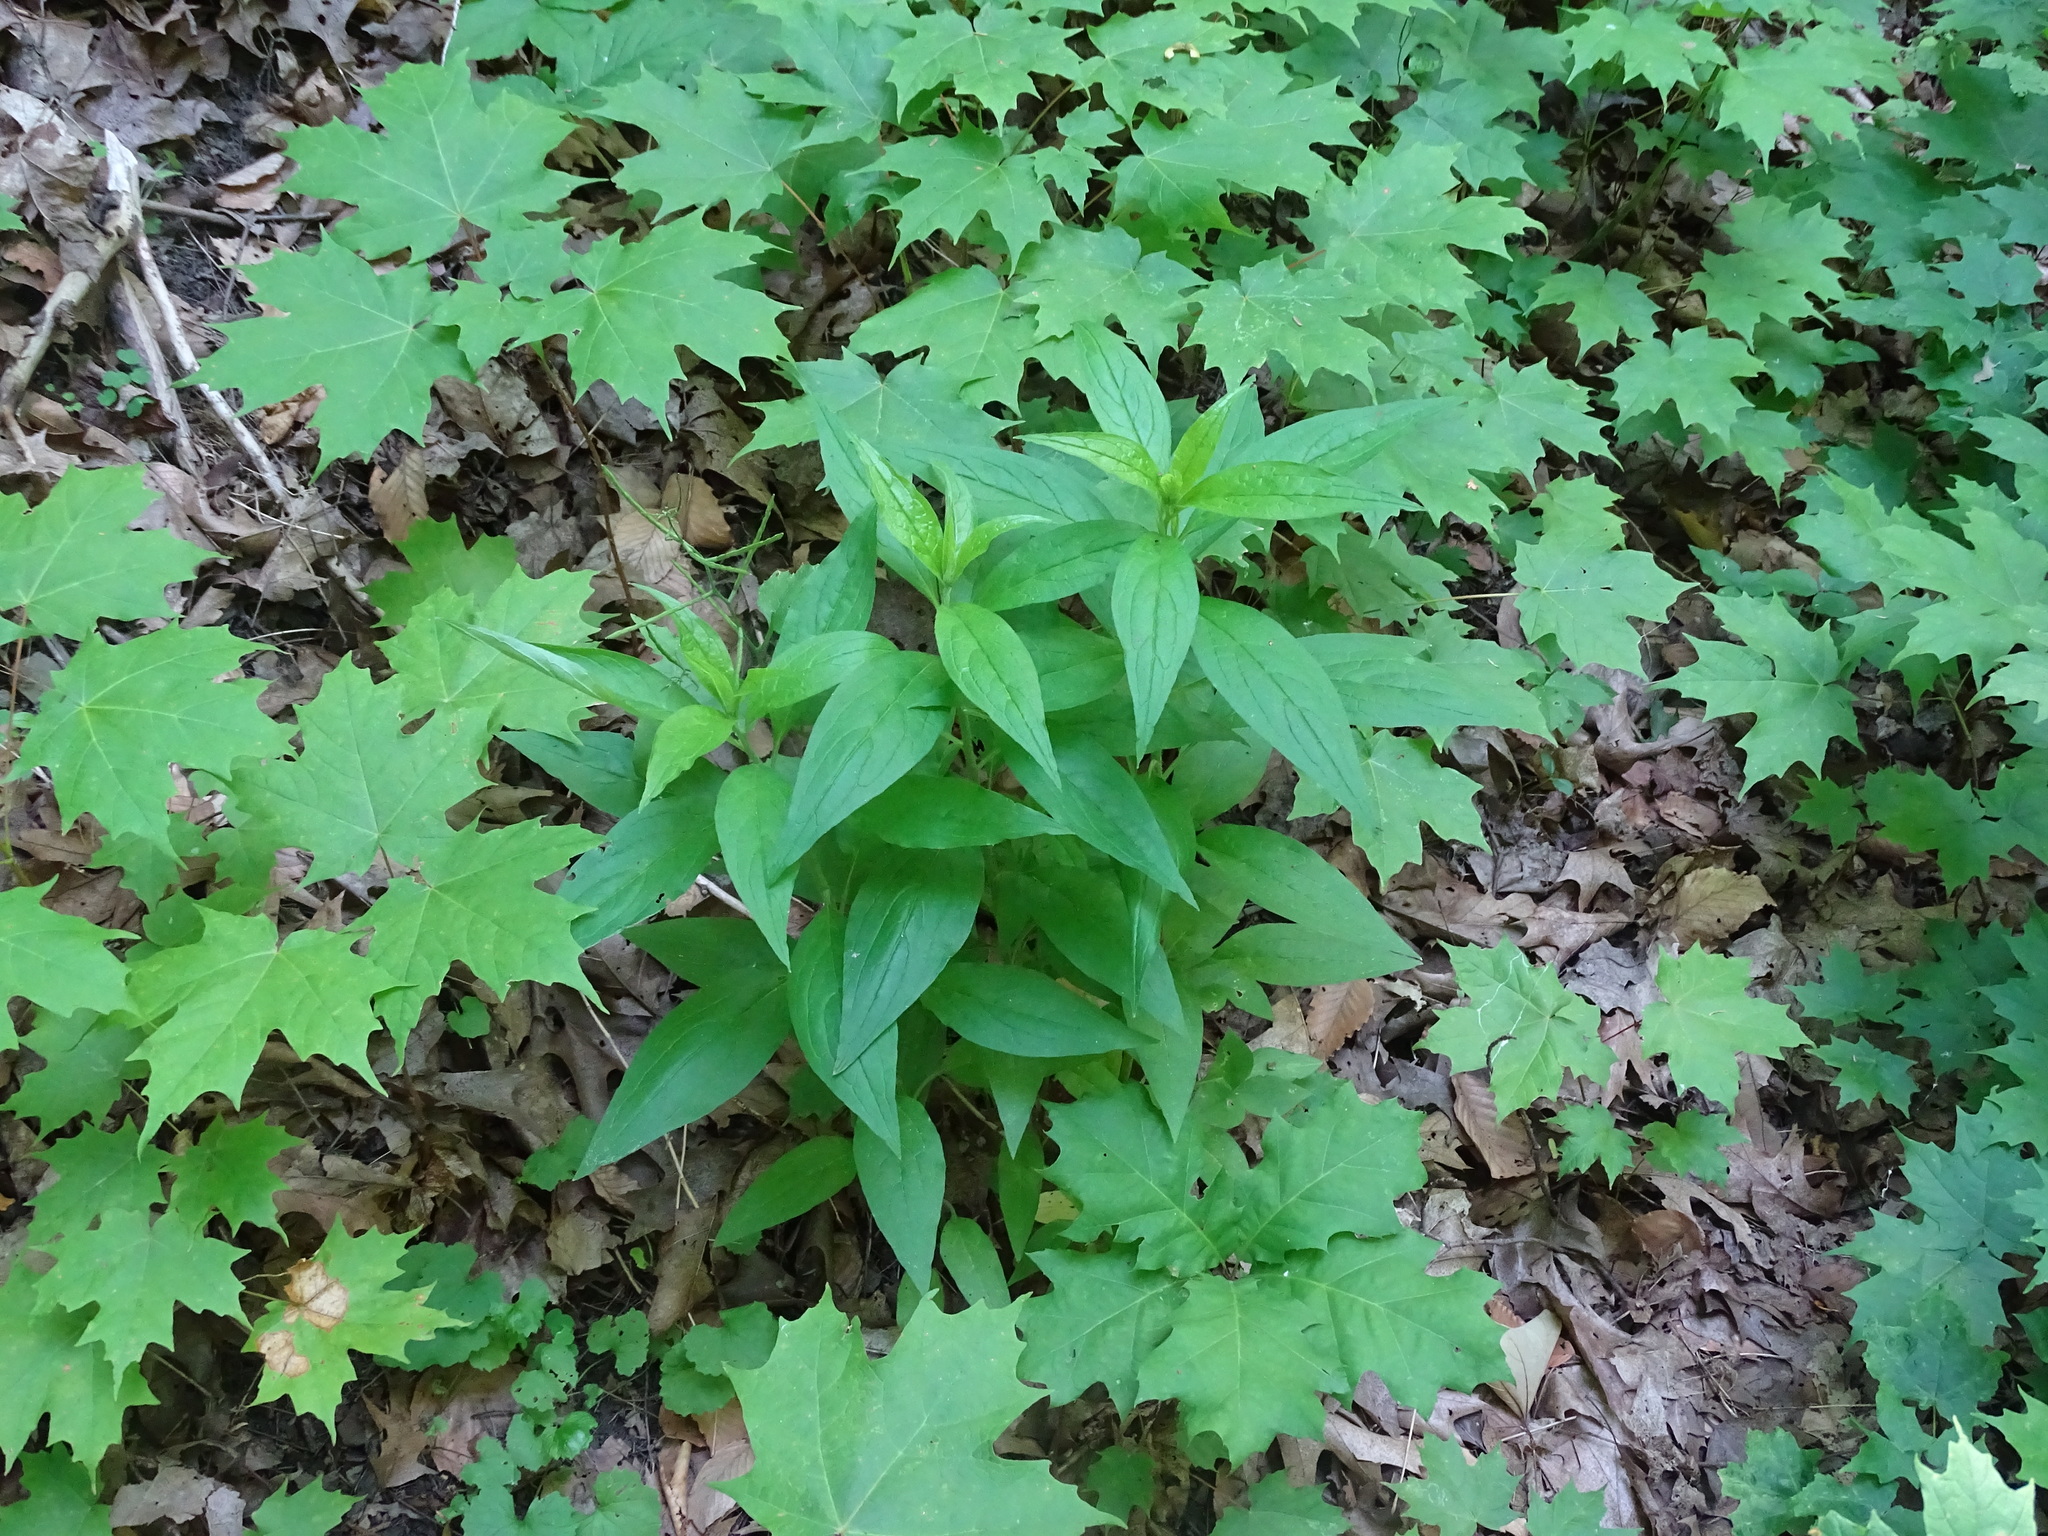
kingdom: Plantae
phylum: Tracheophyta
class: Magnoliopsida
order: Boraginales
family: Boraginaceae
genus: Hackelia
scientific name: Hackelia virginiana
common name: Beggar's-lice
